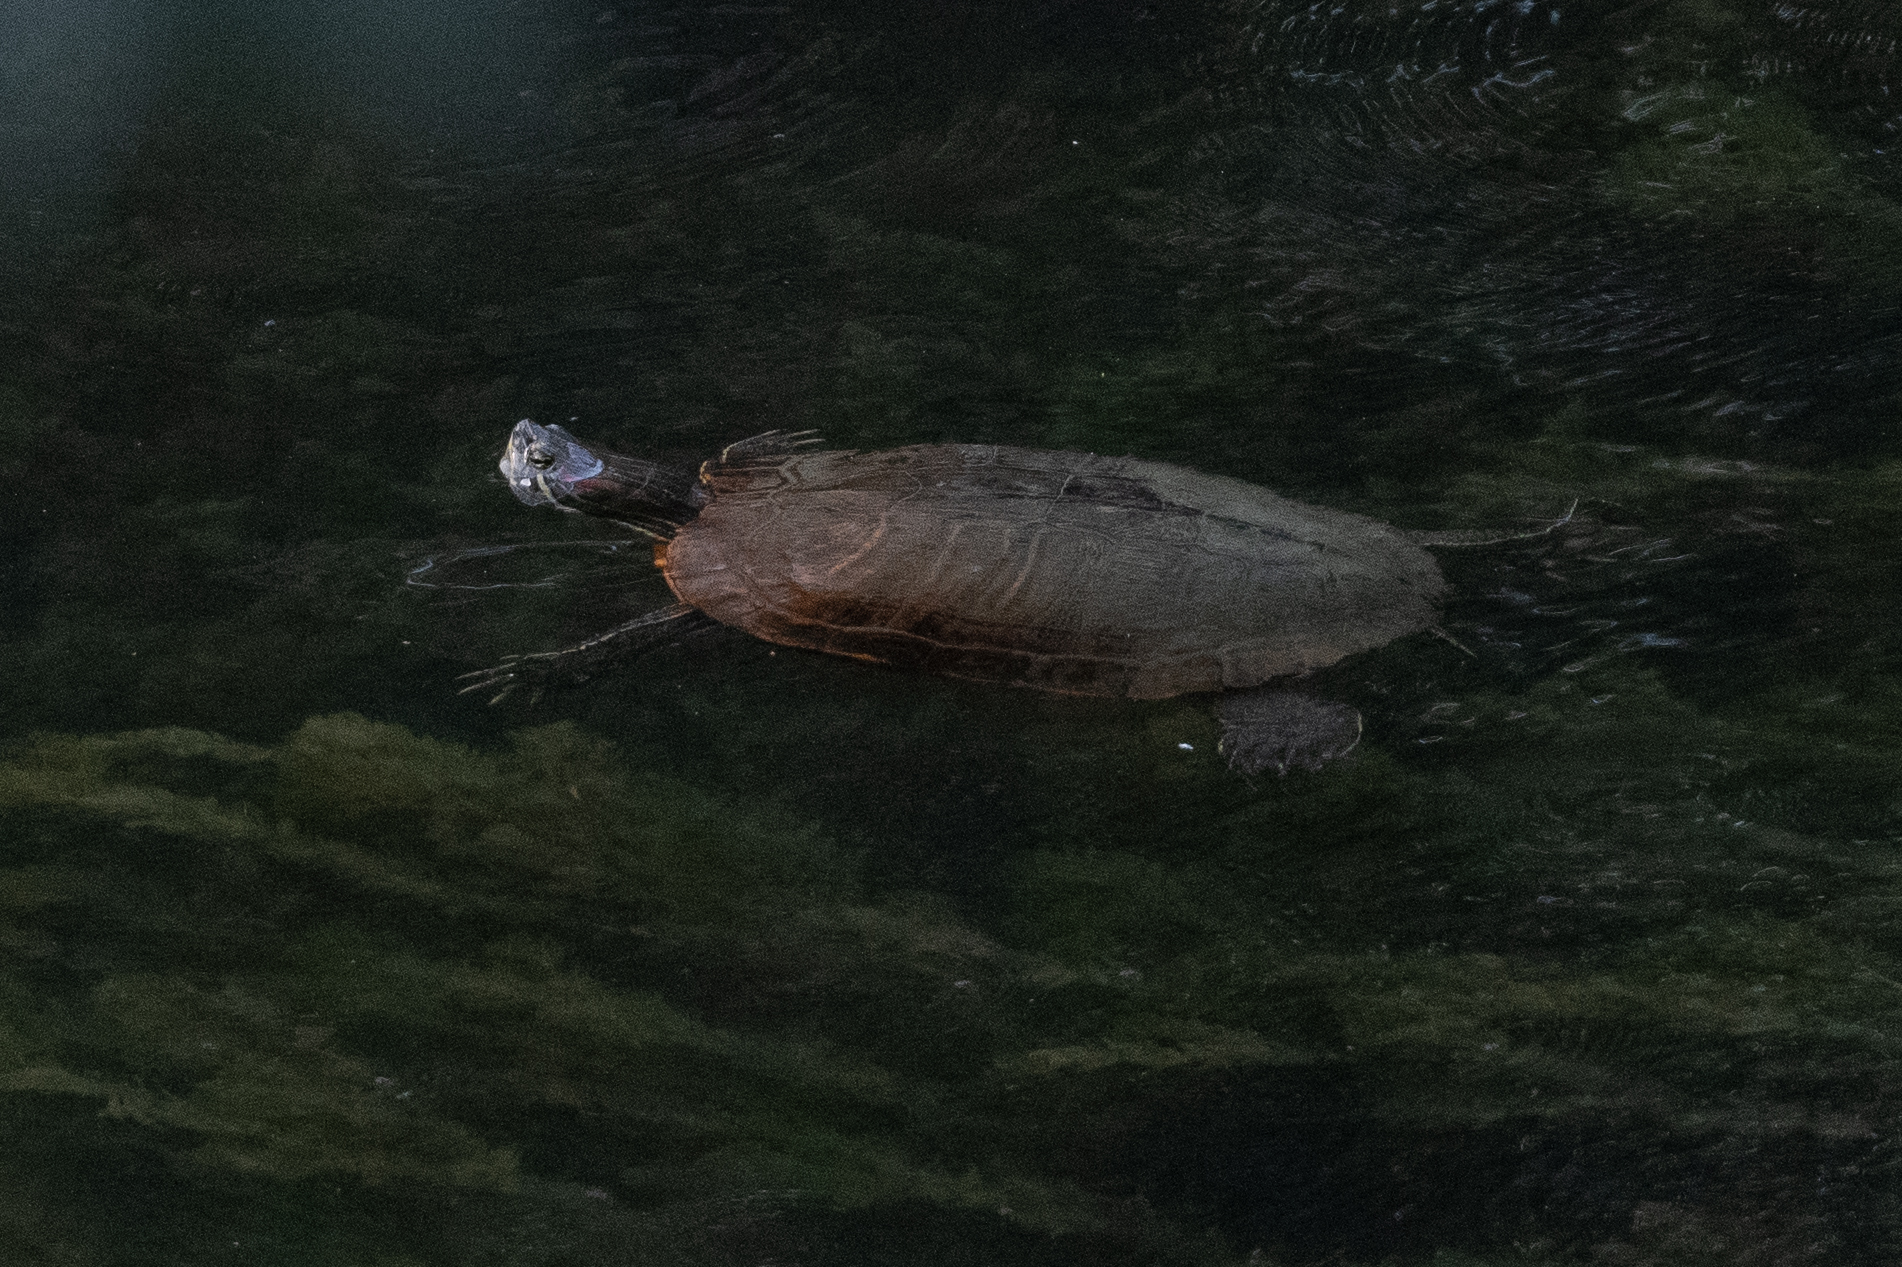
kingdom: Animalia
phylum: Chordata
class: Testudines
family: Emydidae
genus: Trachemys
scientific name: Trachemys scripta
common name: Slider
